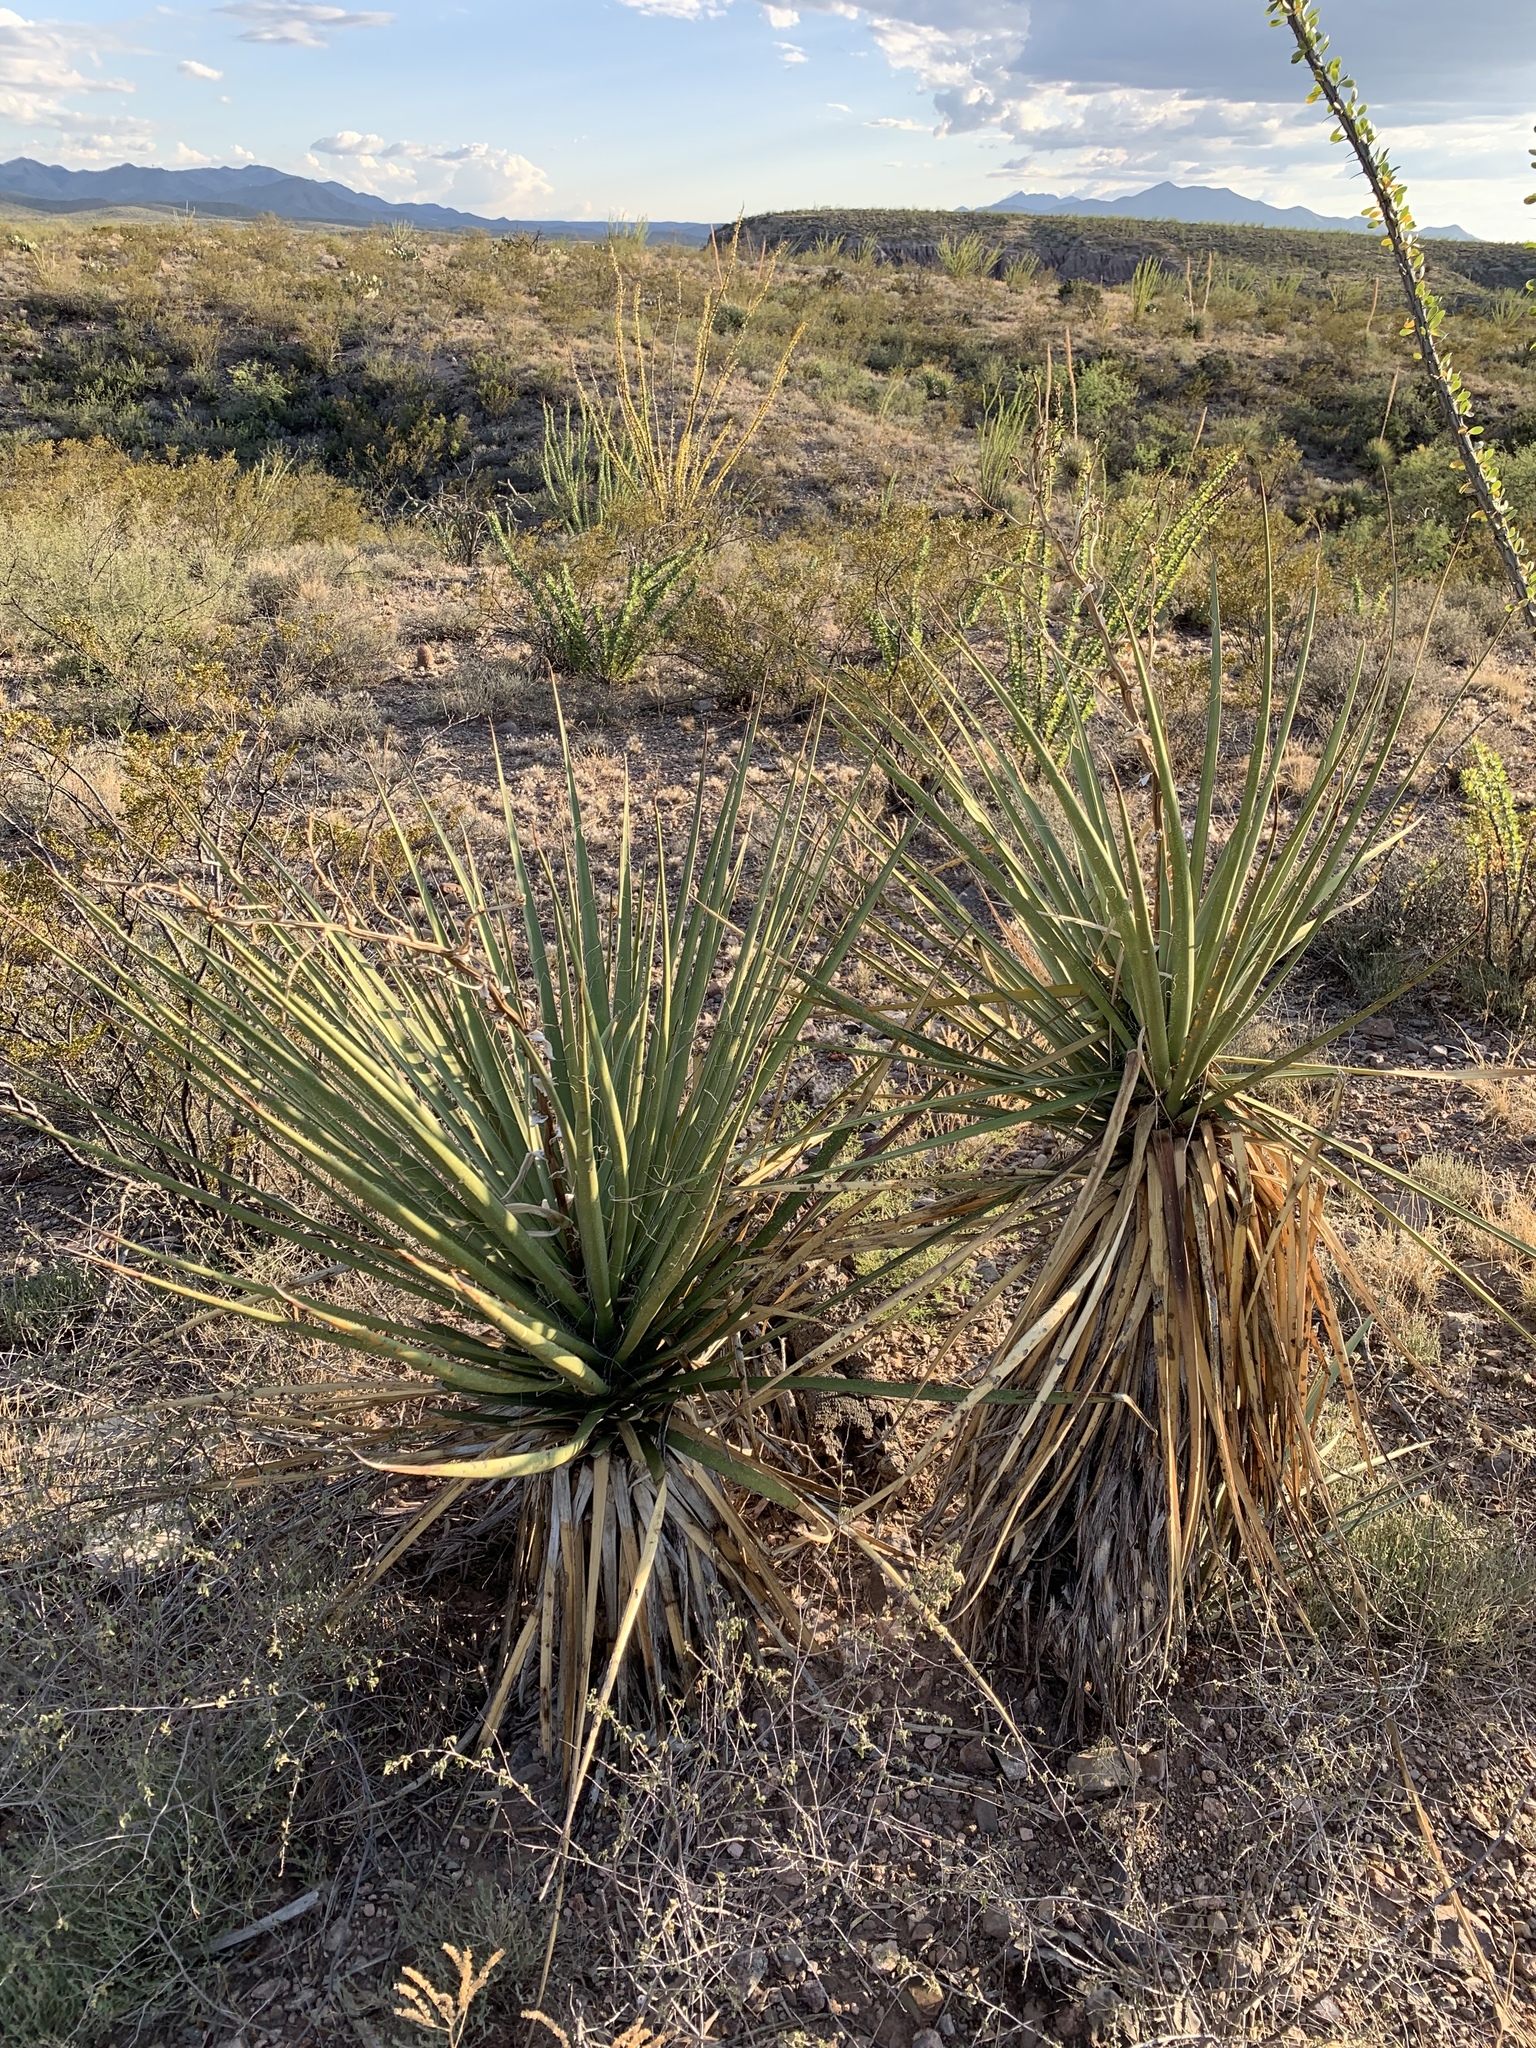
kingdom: Plantae
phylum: Tracheophyta
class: Liliopsida
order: Asparagales
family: Asparagaceae
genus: Yucca
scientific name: Yucca baccata
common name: Banana yucca
